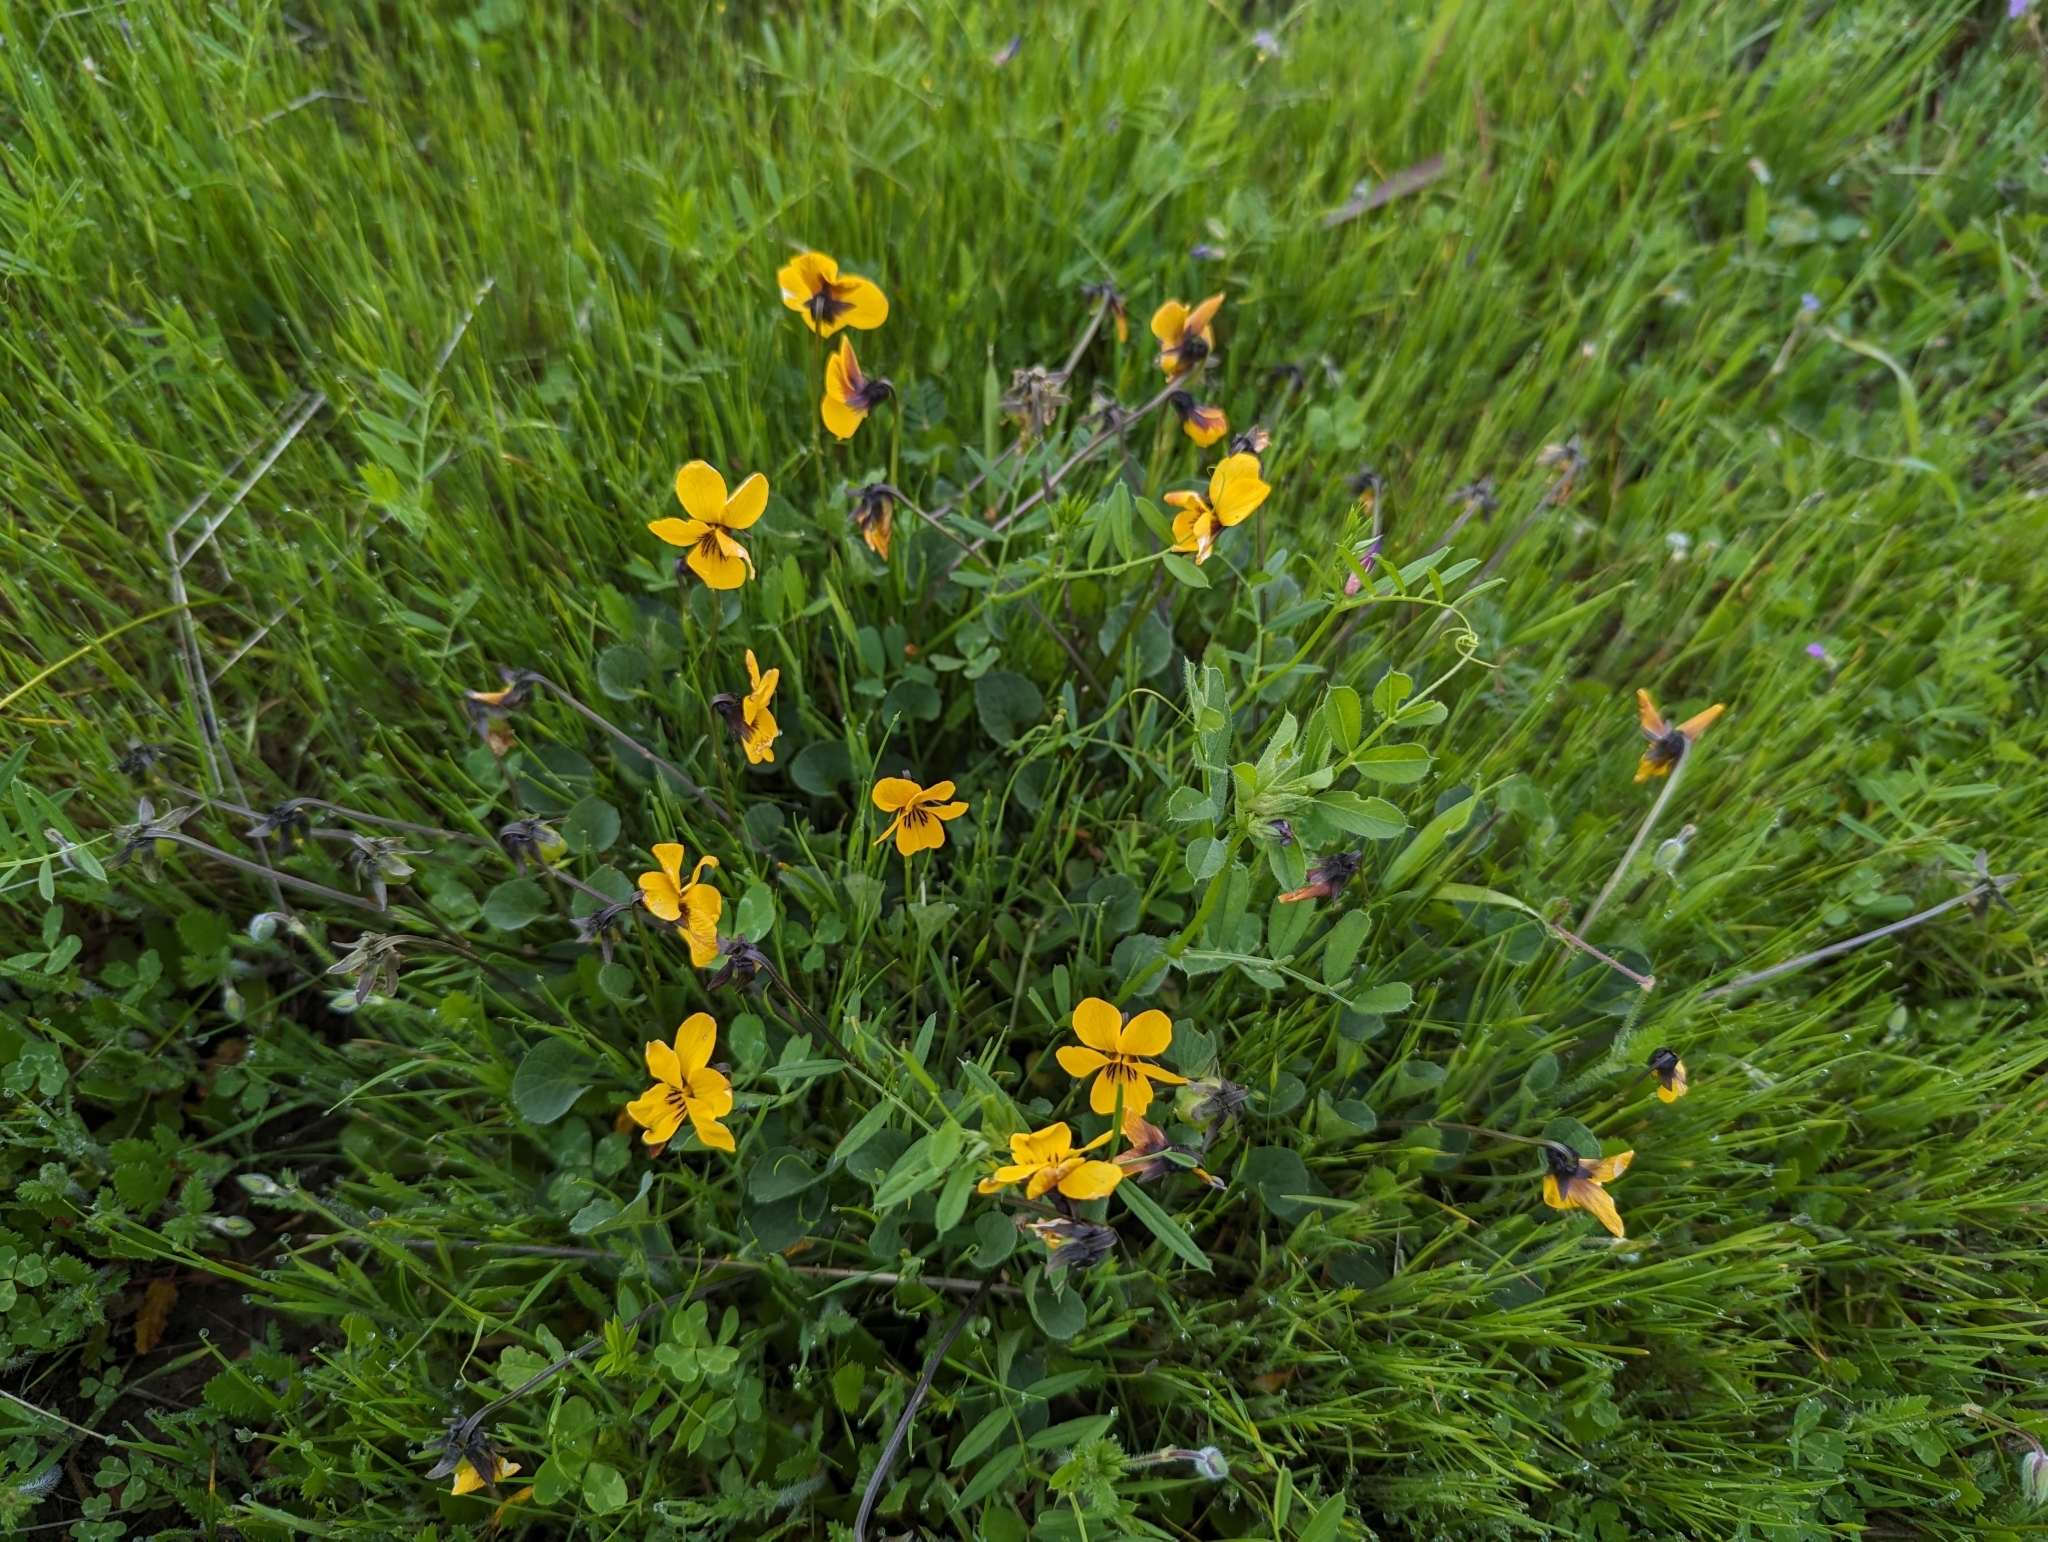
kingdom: Plantae
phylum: Tracheophyta
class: Magnoliopsida
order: Malpighiales
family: Violaceae
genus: Viola
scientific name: Viola pedunculata
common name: California golden violet
